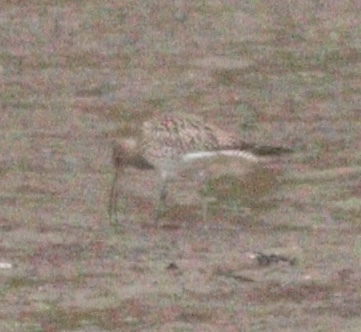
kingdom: Animalia
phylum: Chordata
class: Aves
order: Charadriiformes
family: Scolopacidae
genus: Numenius
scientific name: Numenius arquata
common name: Eurasian curlew
